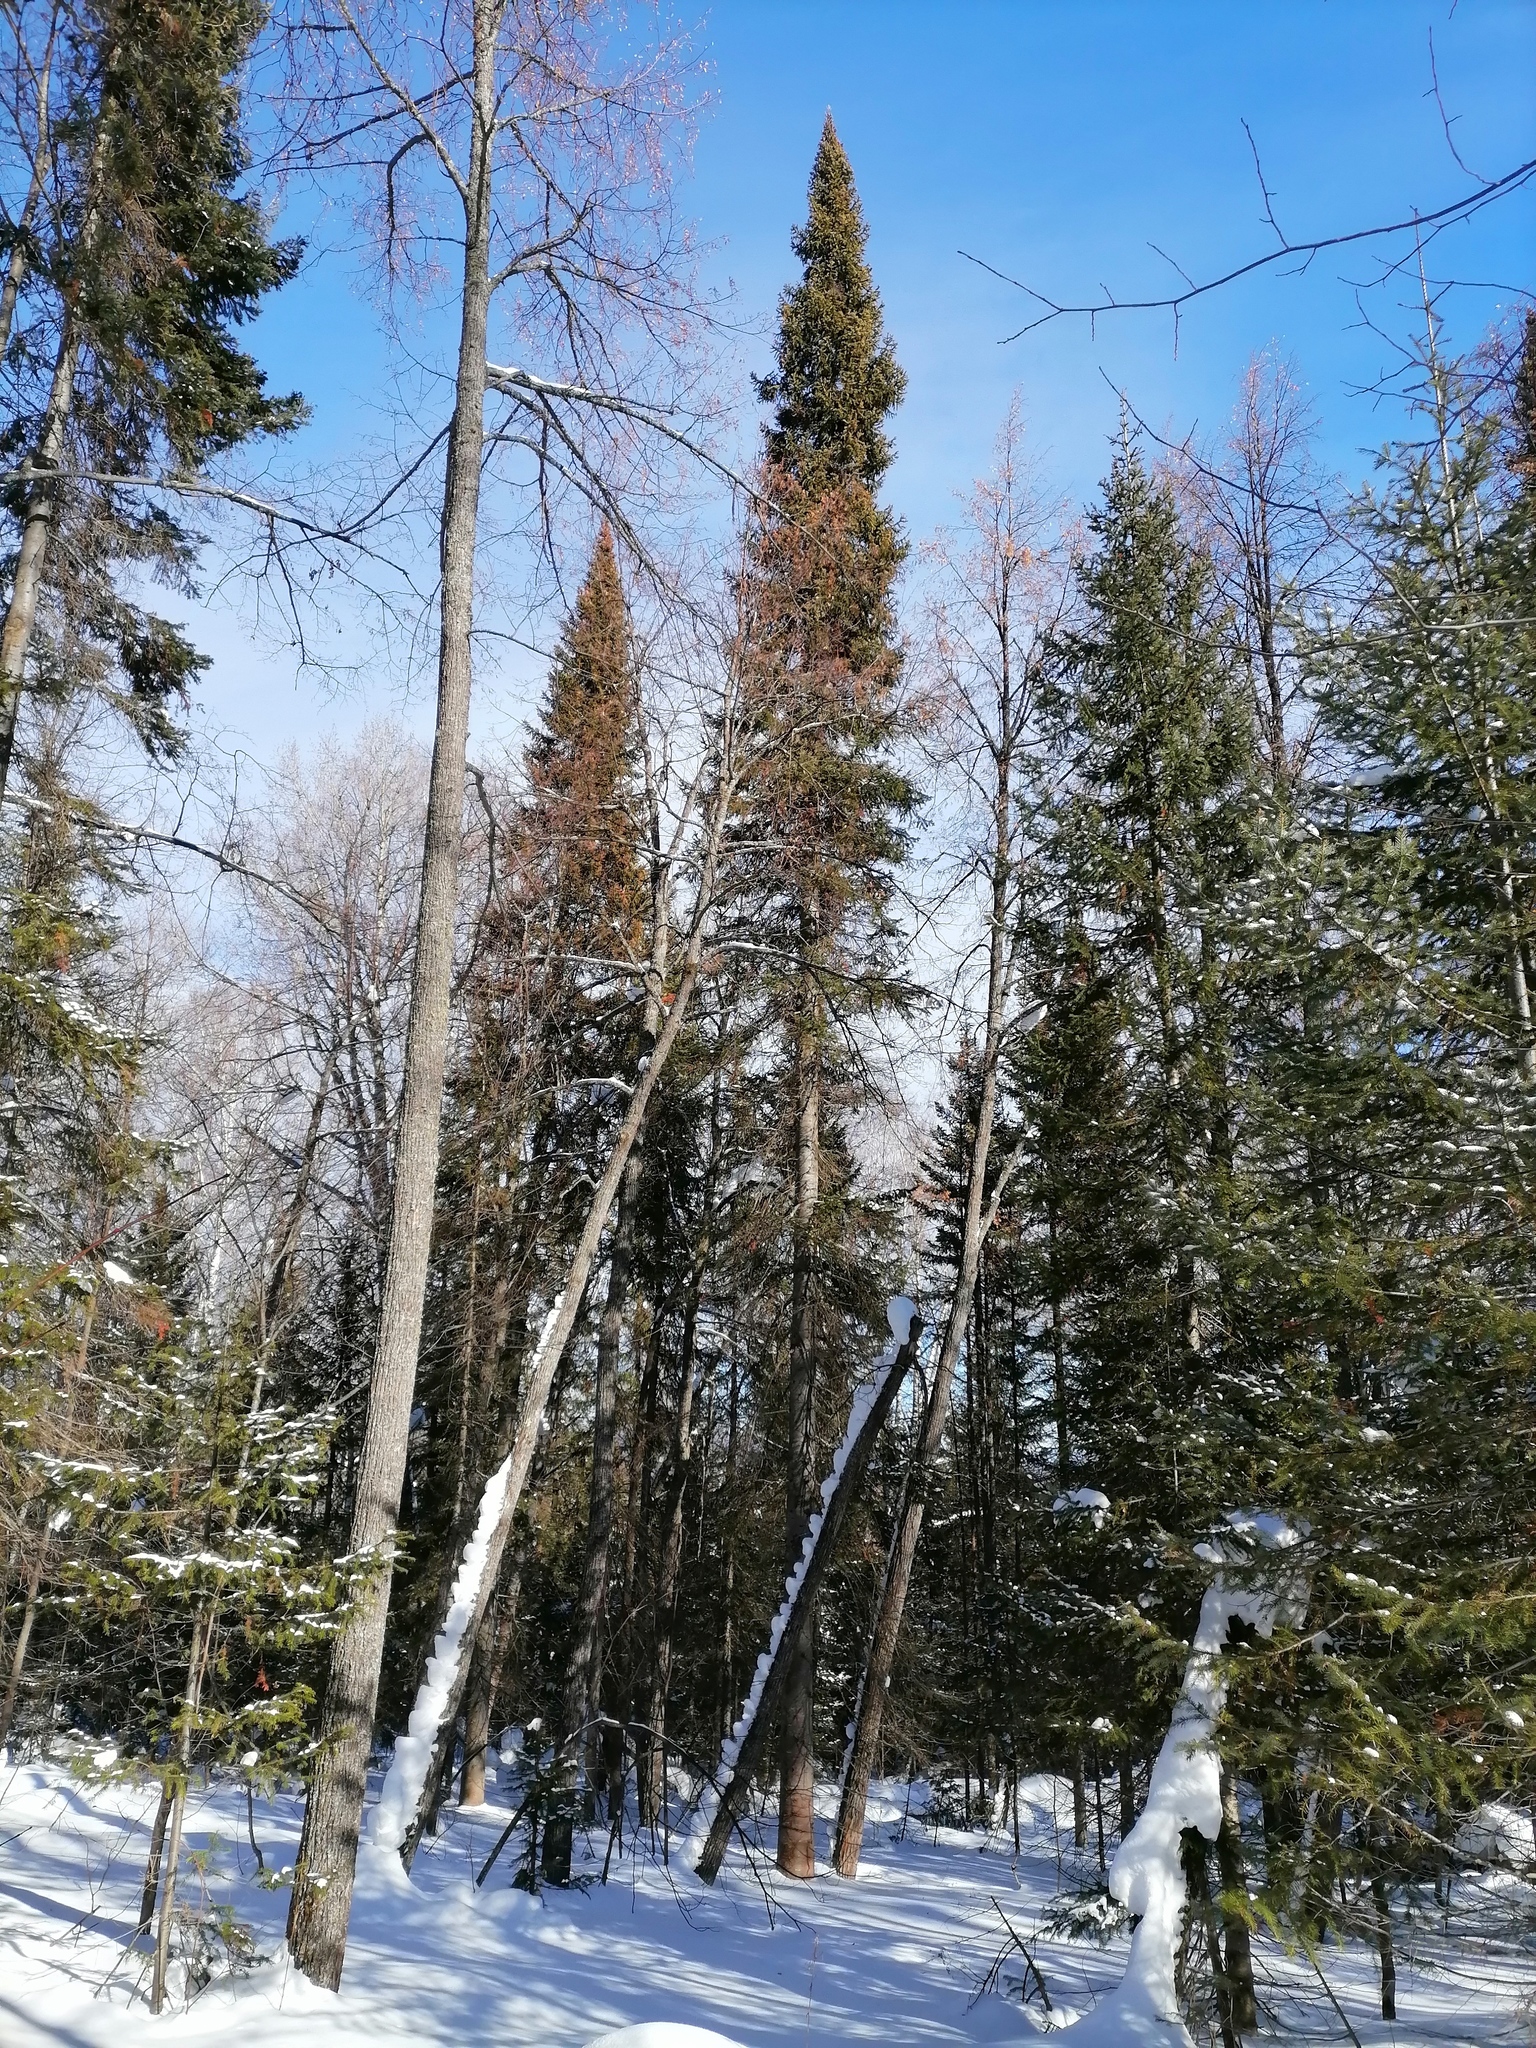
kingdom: Animalia
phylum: Chordata
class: Aves
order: Piciformes
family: Picidae
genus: Dryocopus
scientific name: Dryocopus martius
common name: Black woodpecker
